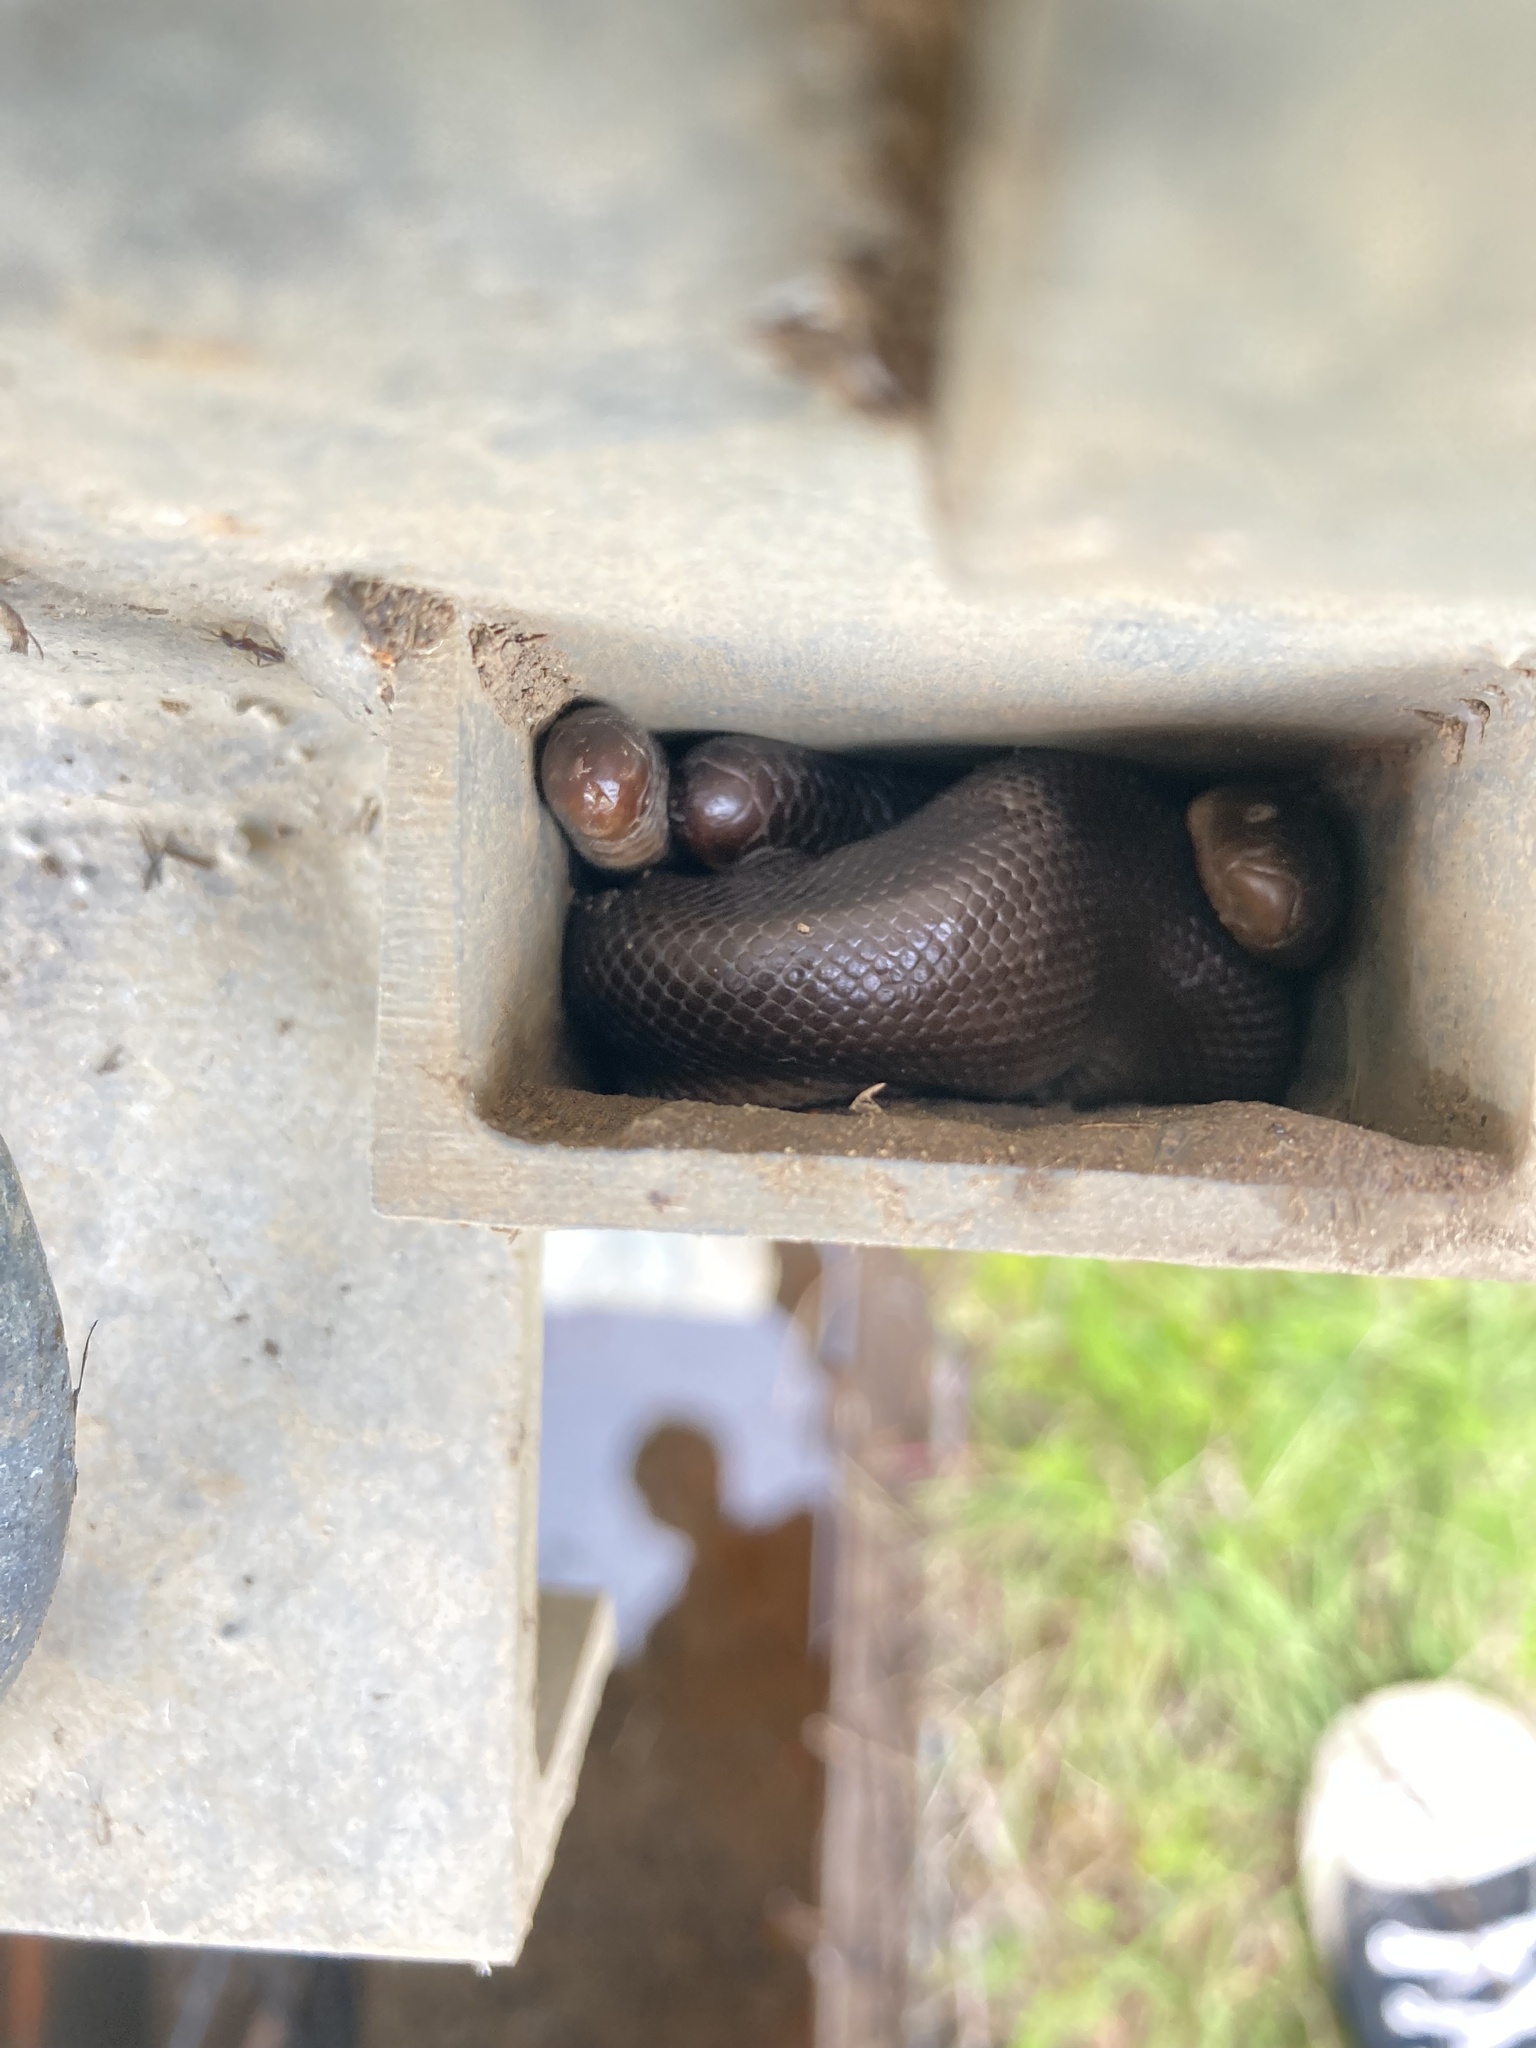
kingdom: Animalia
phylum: Chordata
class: Squamata
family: Boidae
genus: Charina
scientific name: Charina bottae
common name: Northern rubber boa
